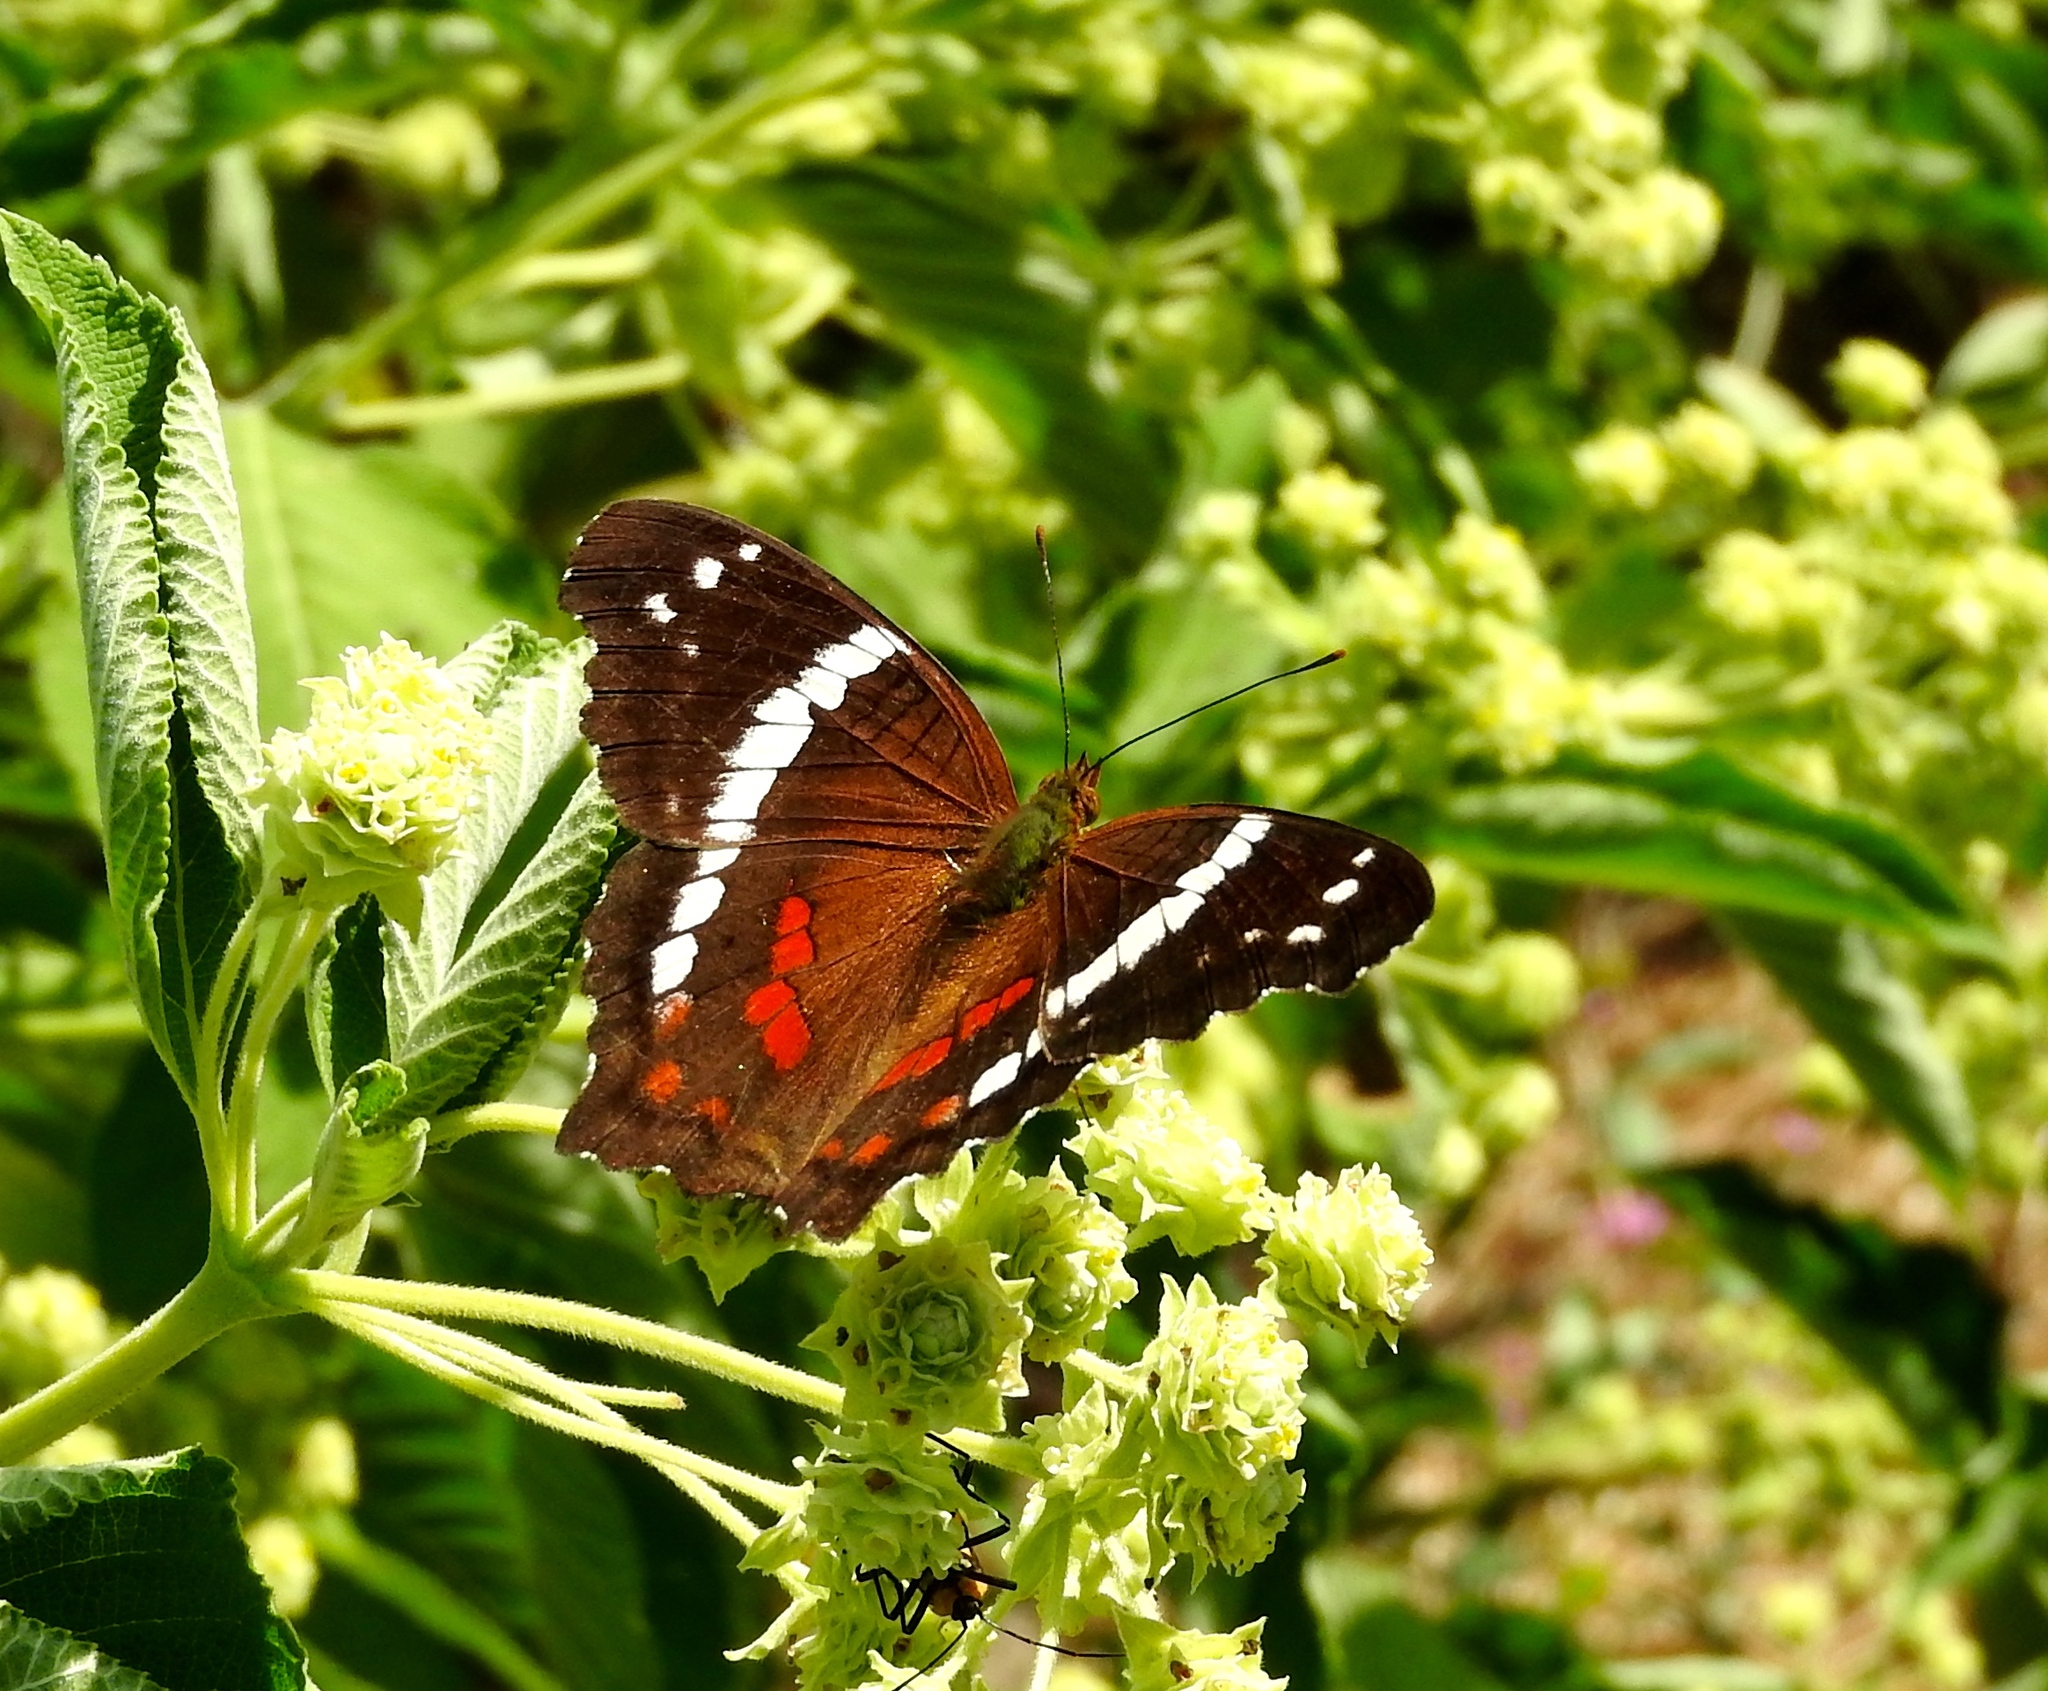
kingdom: Animalia
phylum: Arthropoda
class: Insecta
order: Lepidoptera
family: Nymphalidae
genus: Anartia
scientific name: Anartia fatima
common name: Banded peacock
